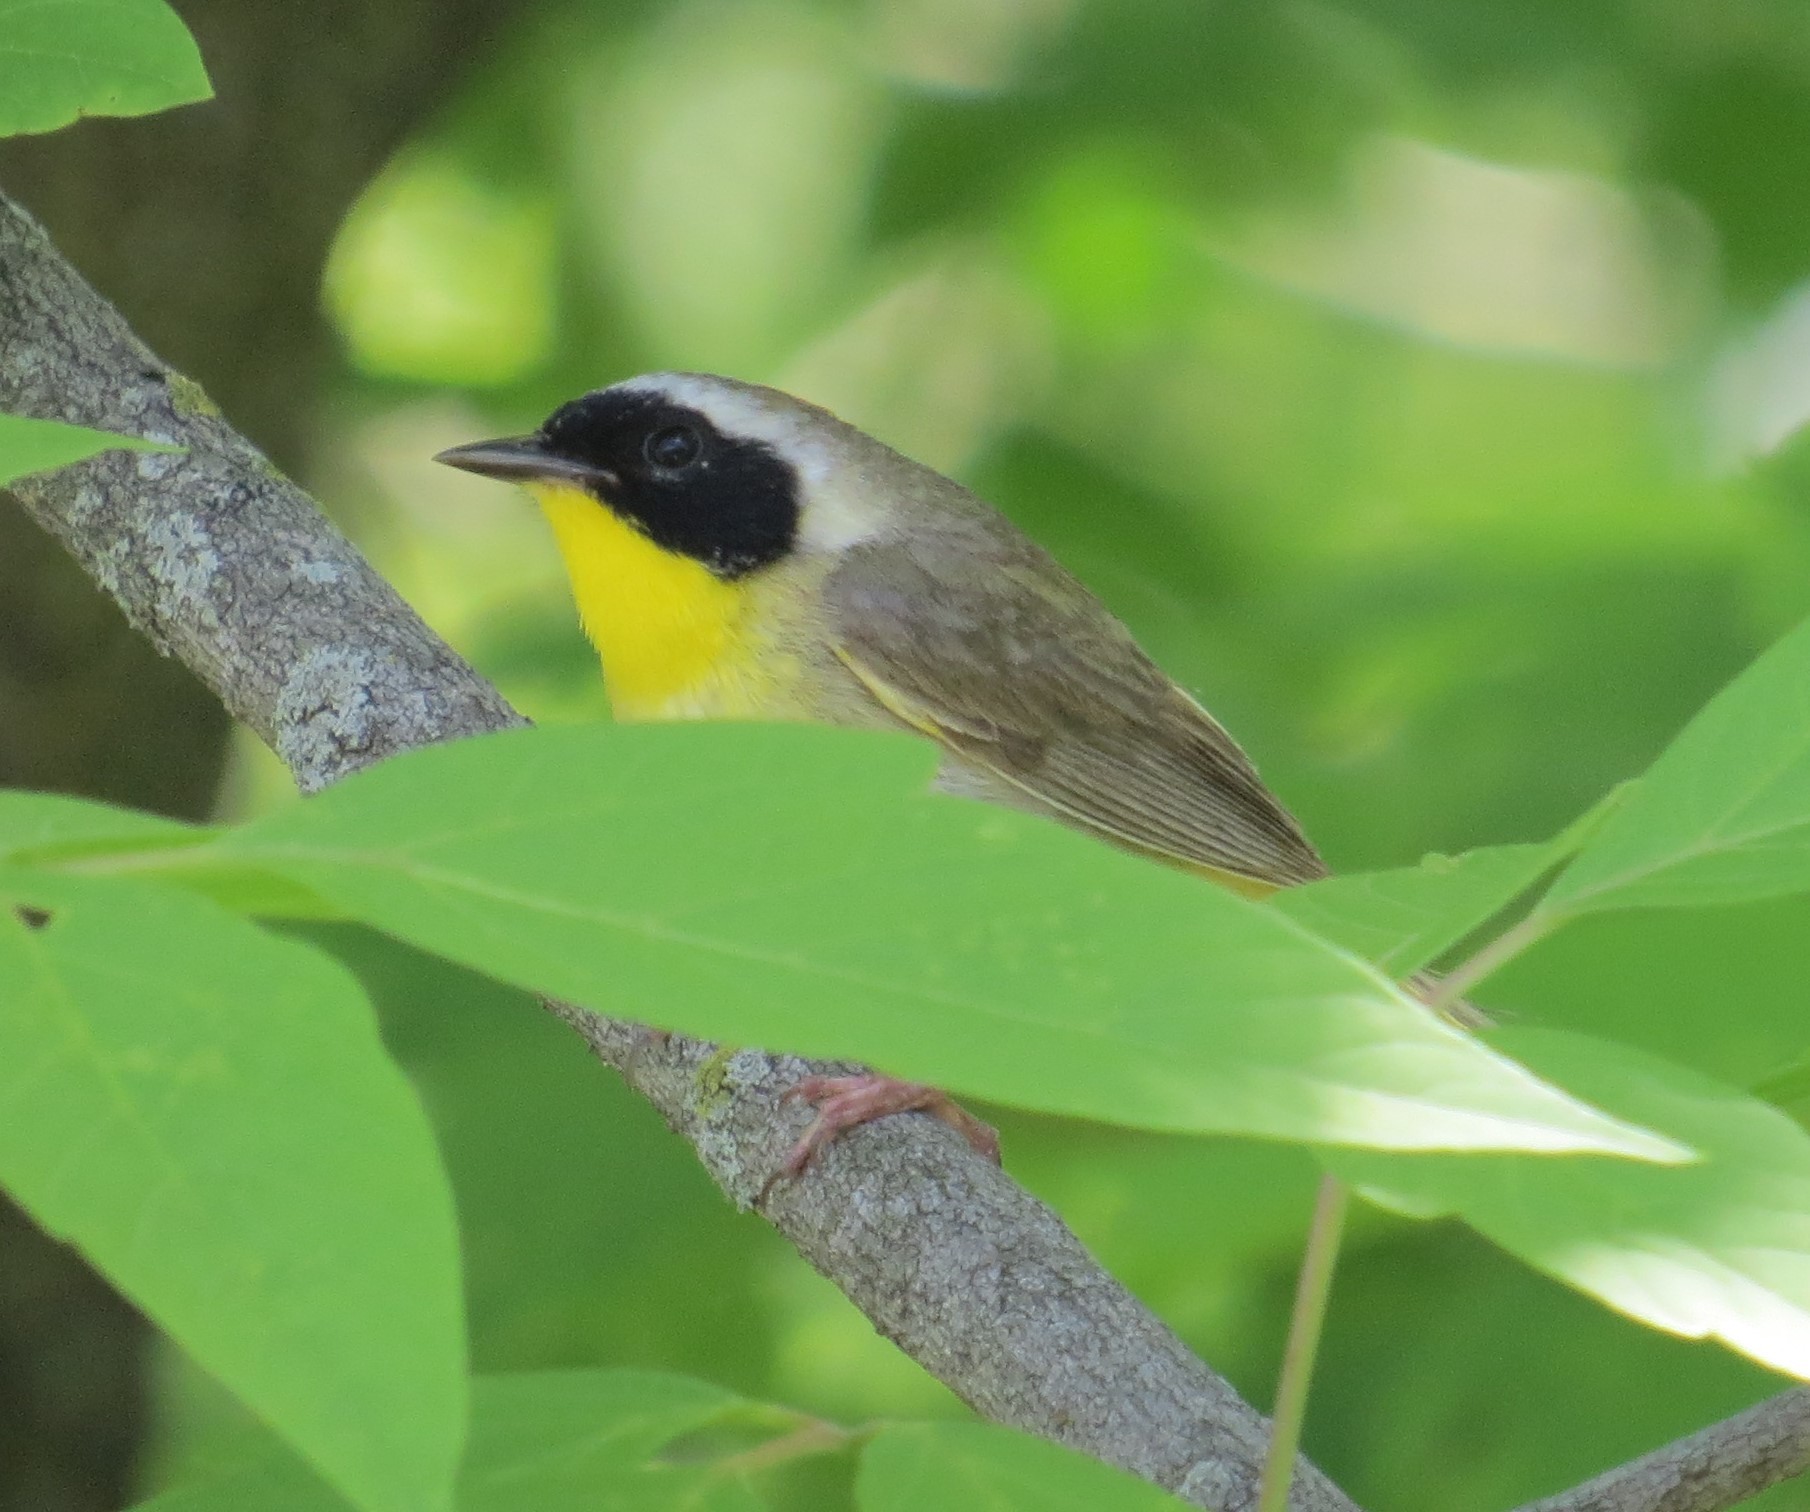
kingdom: Animalia
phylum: Chordata
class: Aves
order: Passeriformes
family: Parulidae
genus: Geothlypis
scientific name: Geothlypis trichas
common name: Common yellowthroat
